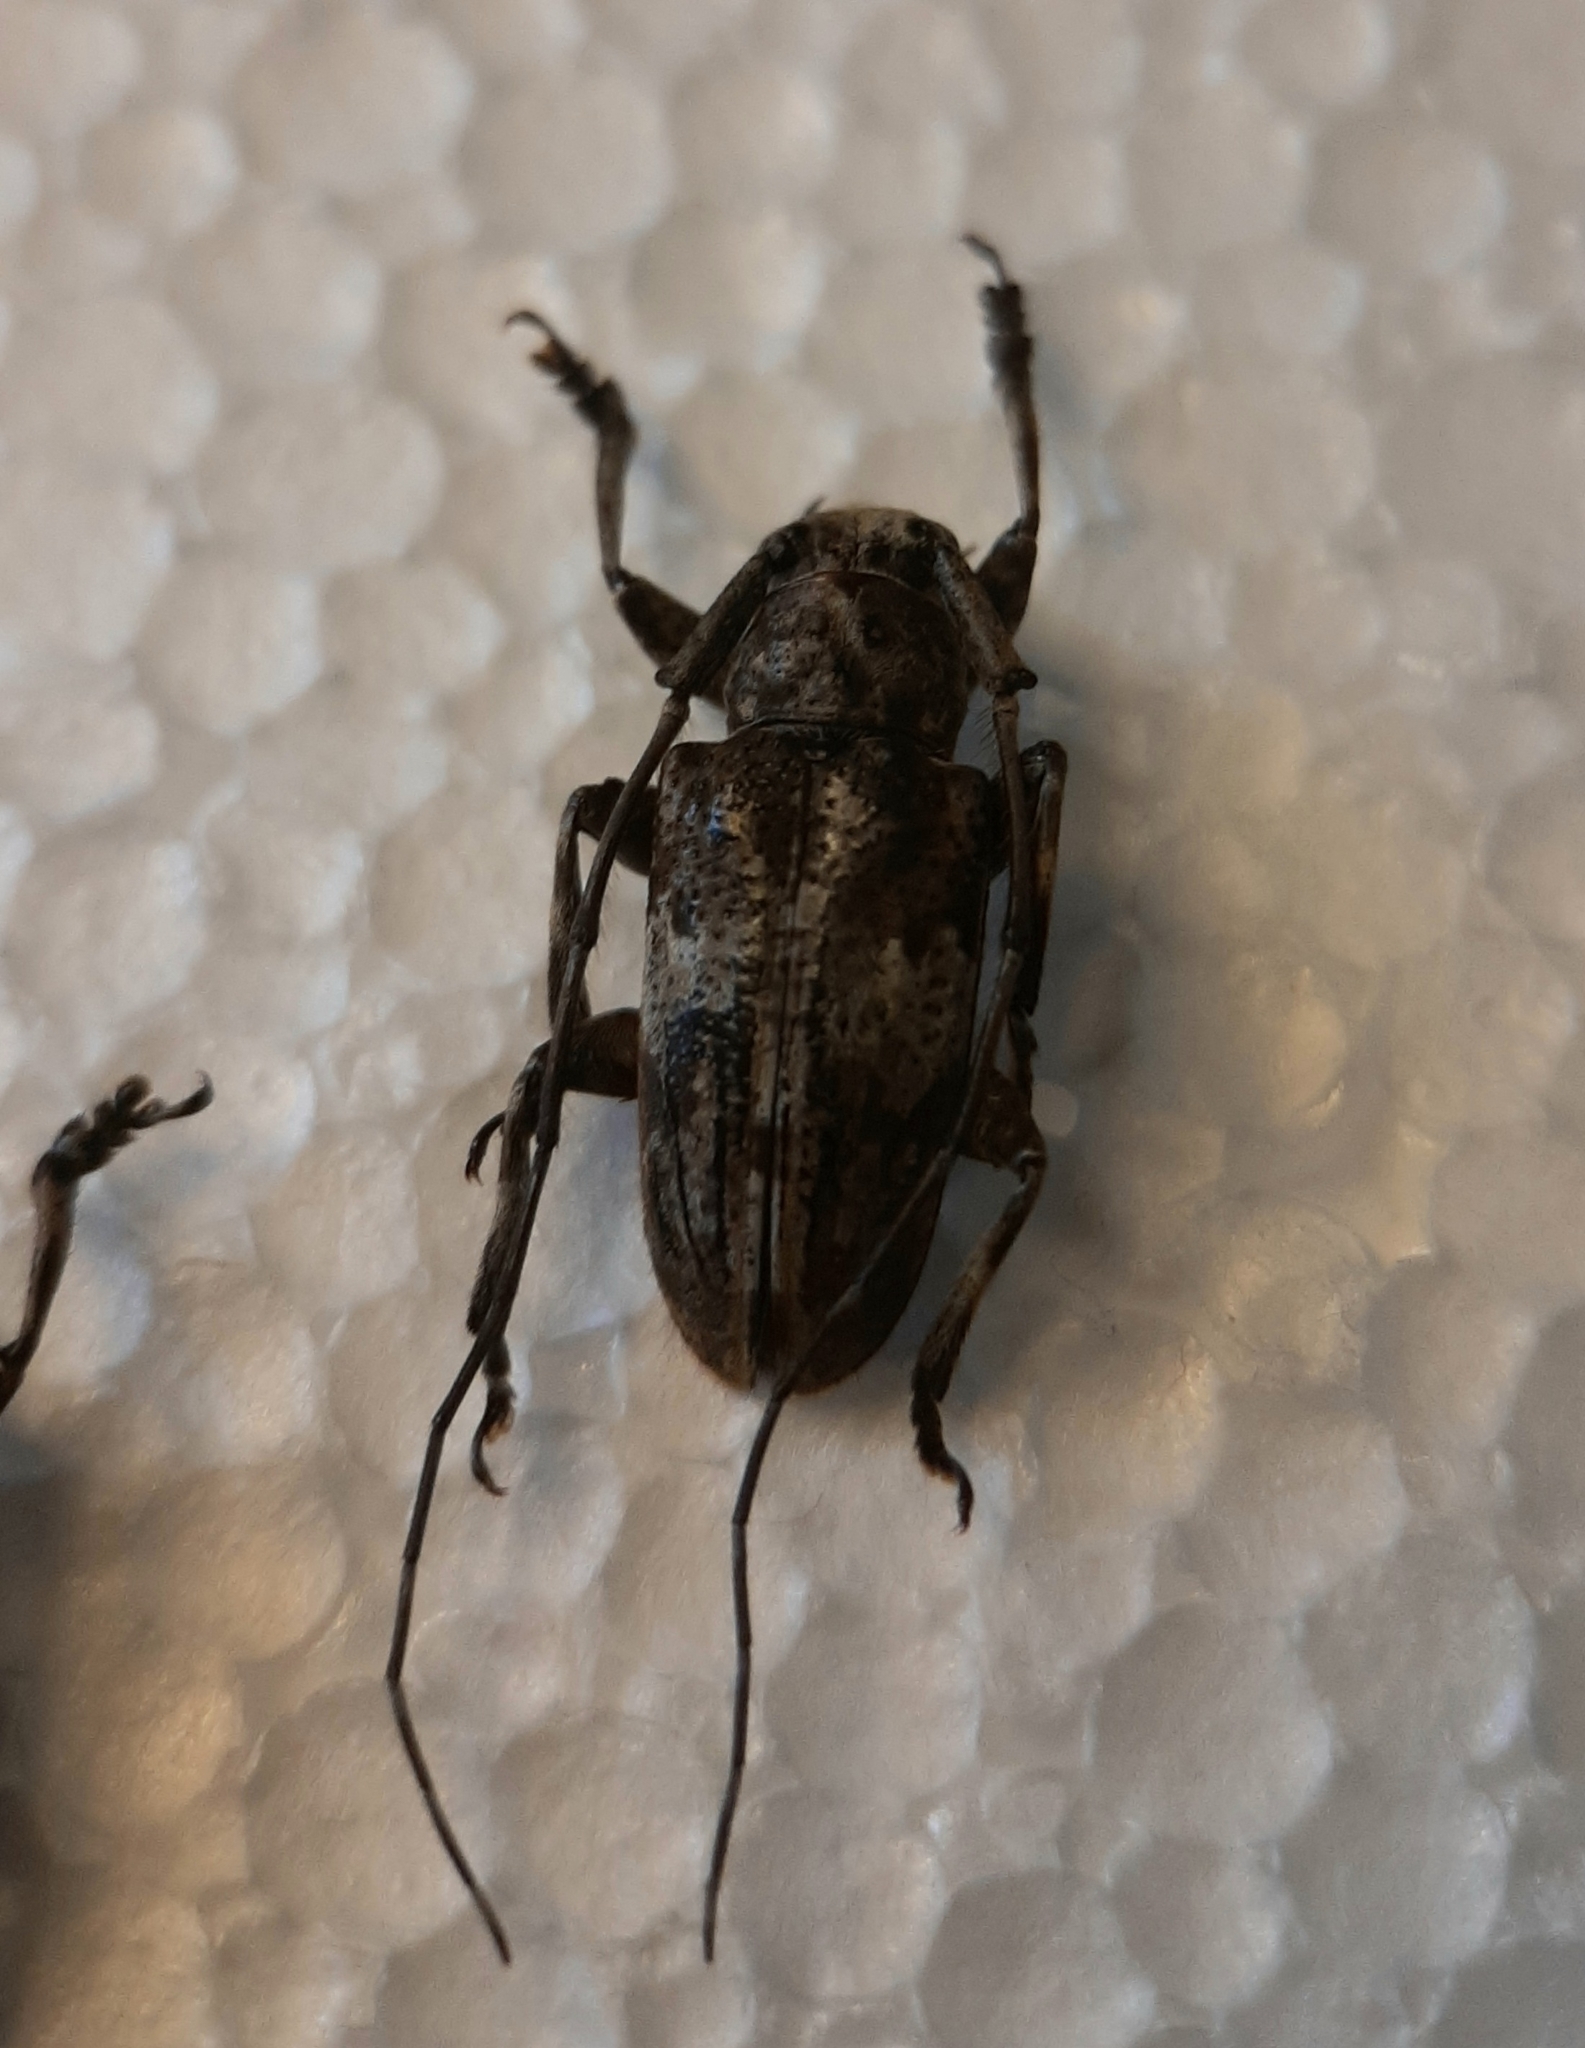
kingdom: Animalia
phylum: Arthropoda
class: Insecta
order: Coleoptera
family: Cerambycidae
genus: Mesosa
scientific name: Mesosa subfasciata
